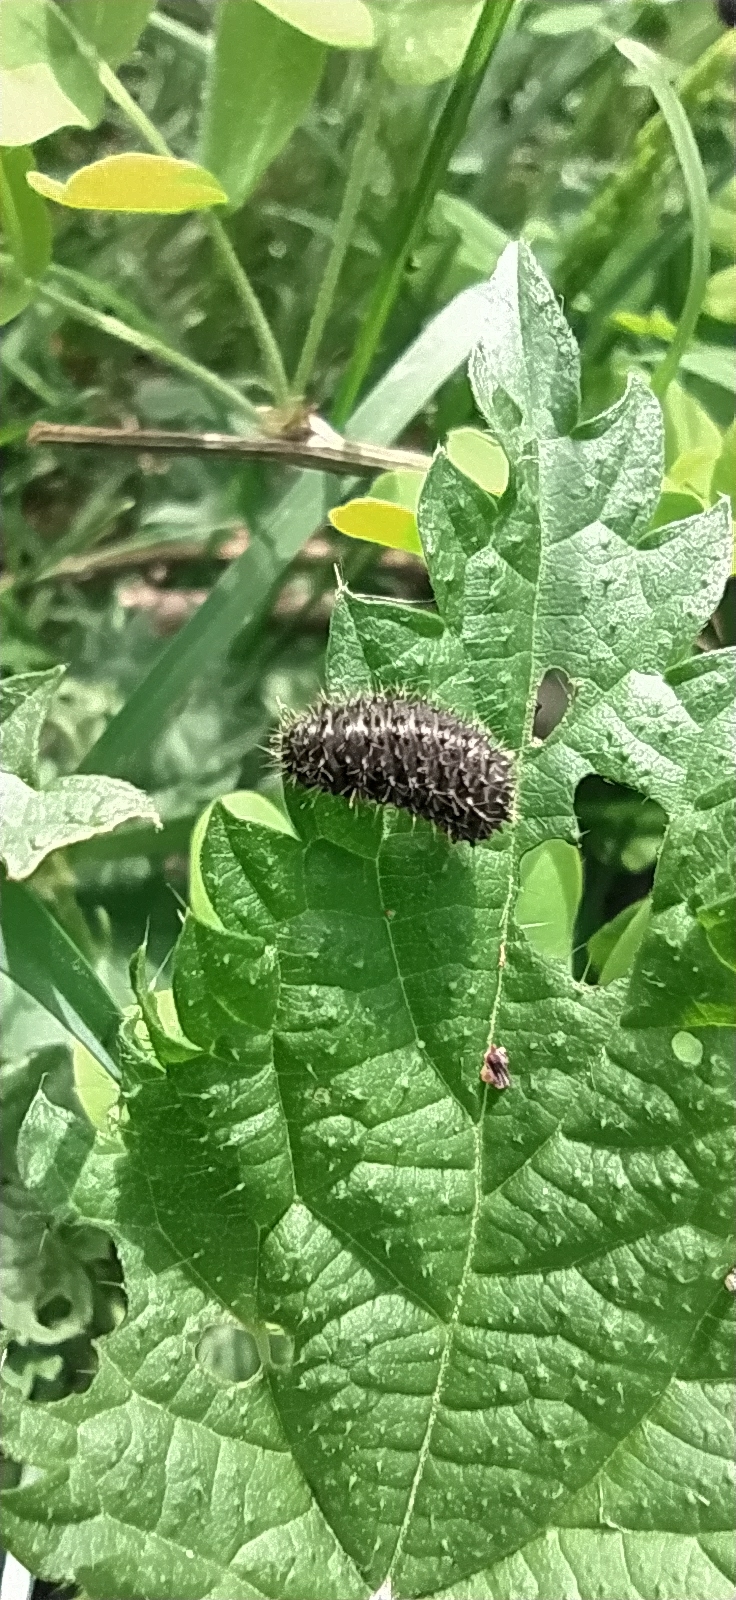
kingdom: Animalia
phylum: Arthropoda
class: Insecta
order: Coleoptera
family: Chrysomelidae
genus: Galeruca
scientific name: Galeruca tanaceti
